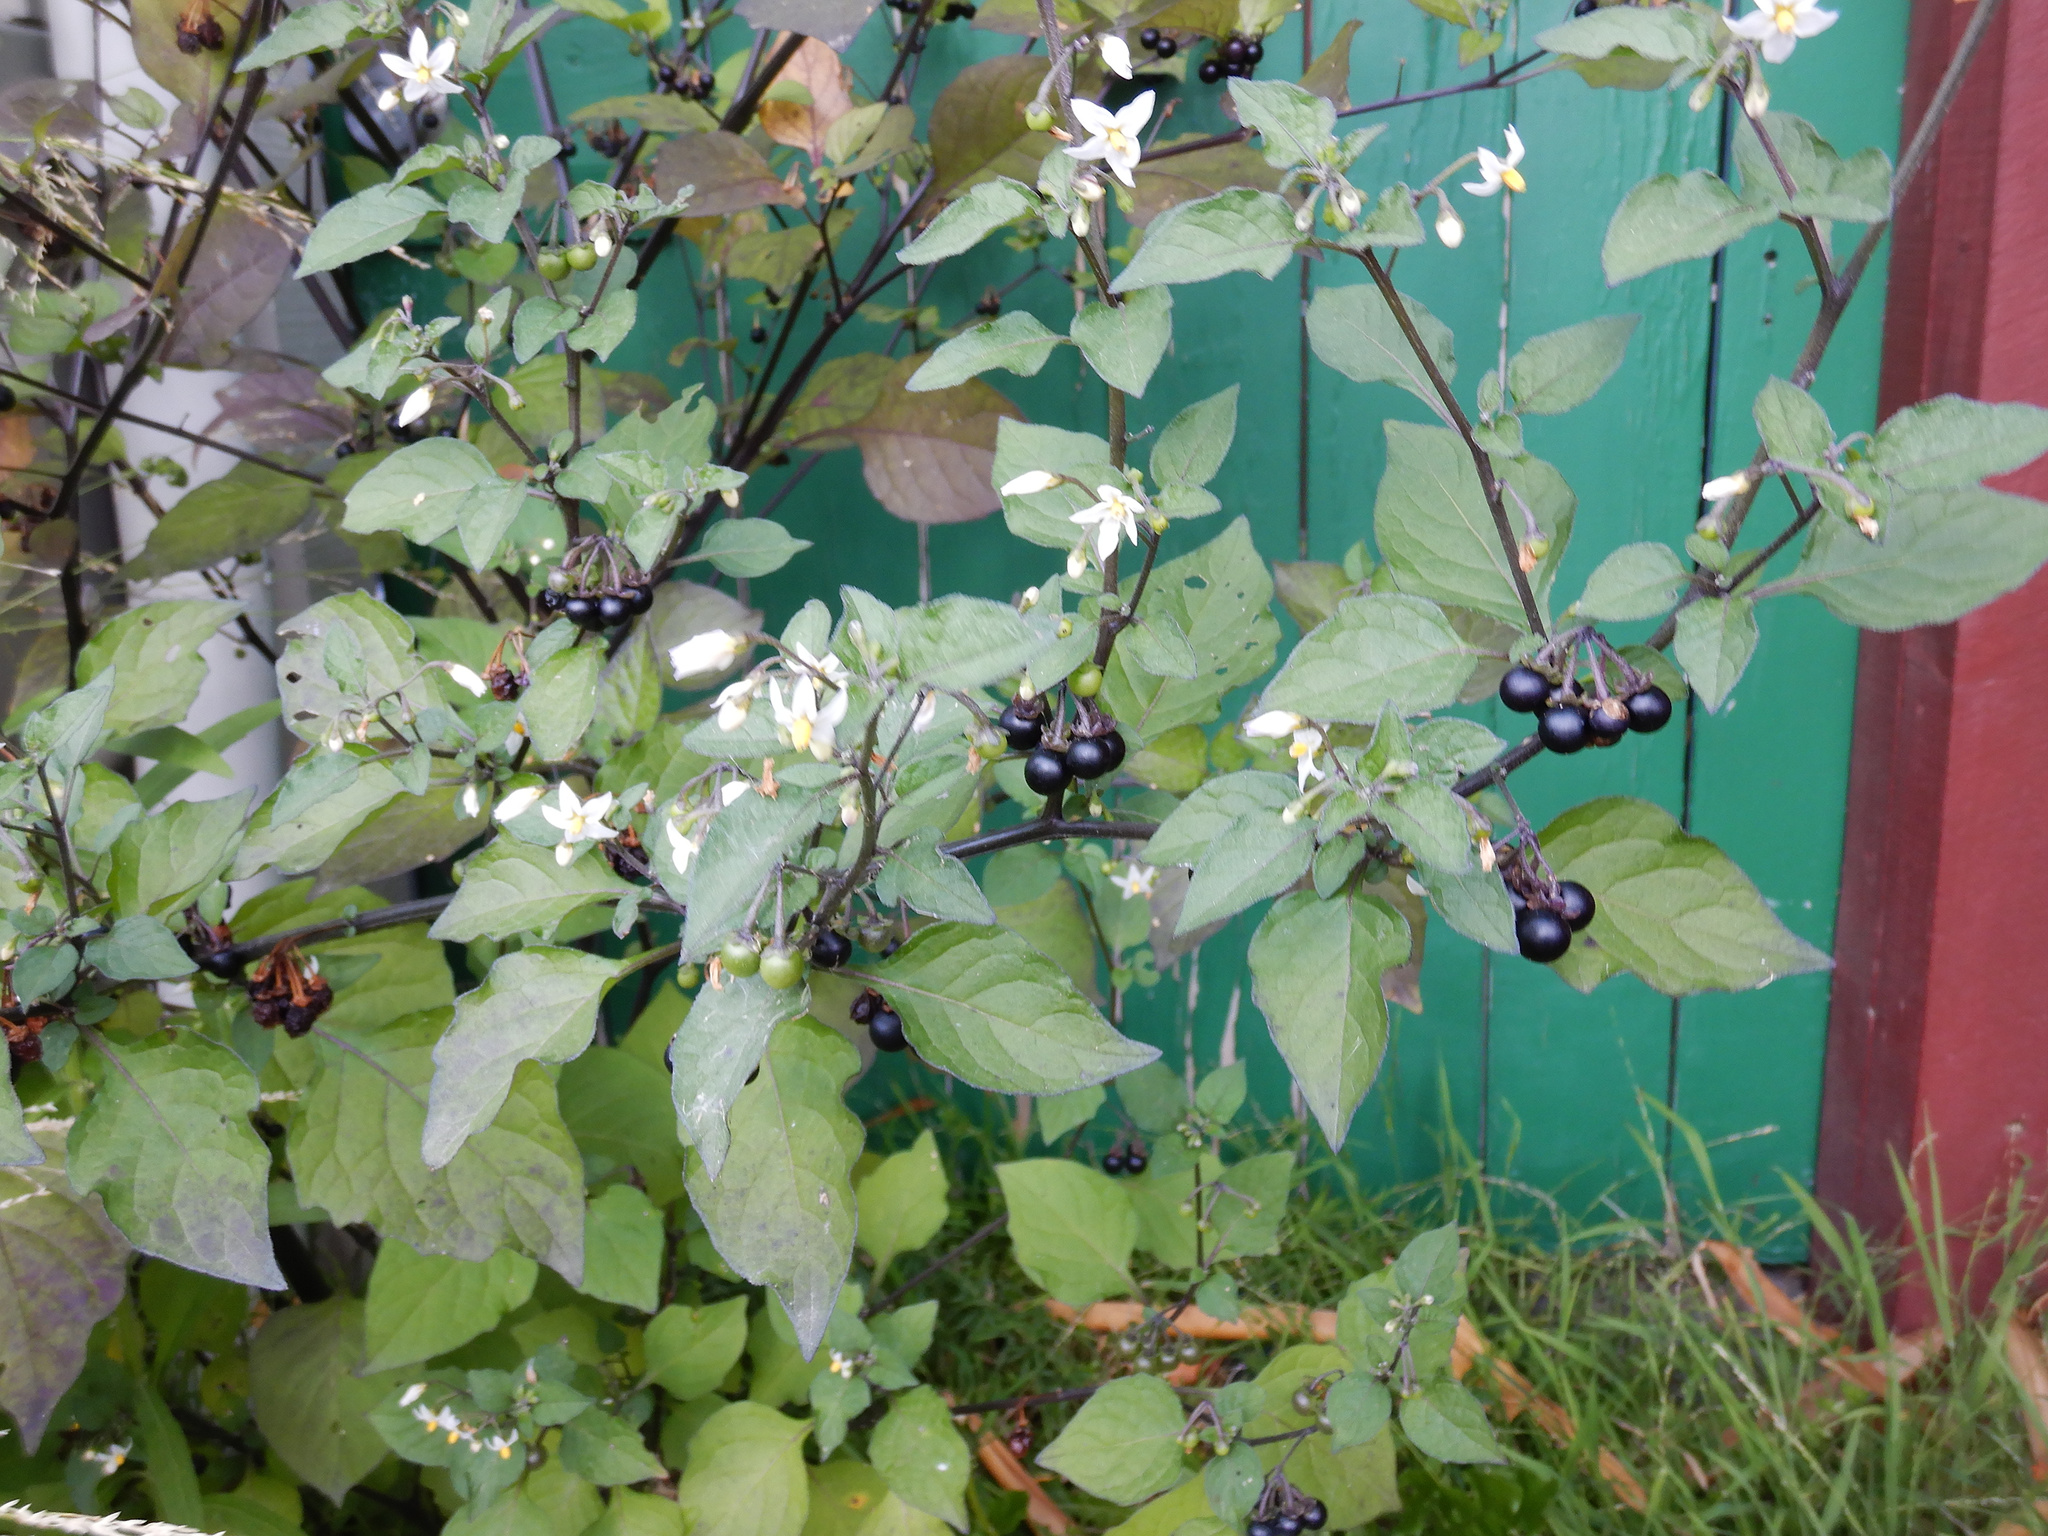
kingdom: Plantae
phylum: Tracheophyta
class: Magnoliopsida
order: Solanales
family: Solanaceae
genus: Solanum
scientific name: Solanum nigrum
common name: Black nightshade
